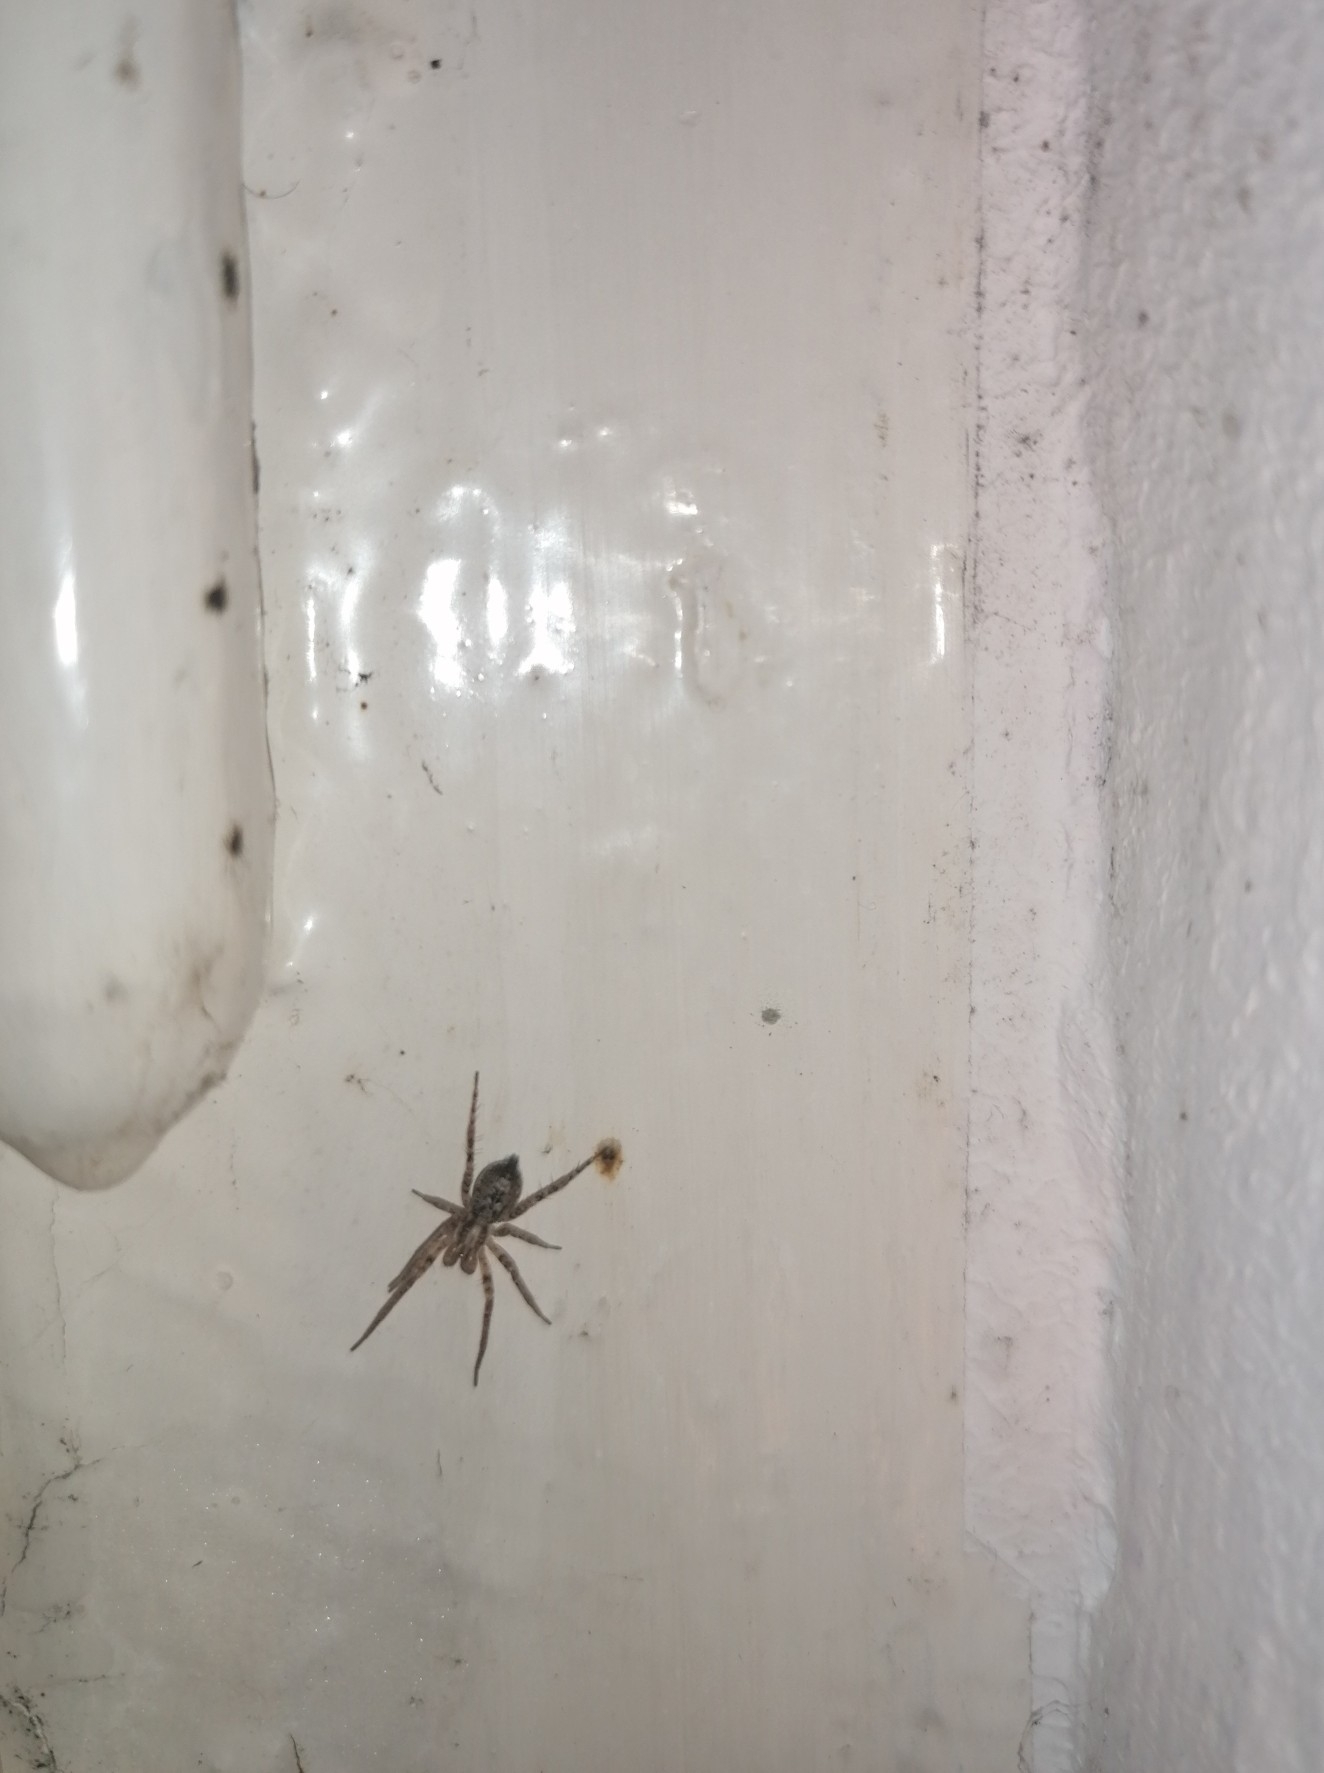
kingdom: Animalia
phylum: Arthropoda
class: Arachnida
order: Araneae
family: Anyphaenidae
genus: Anyphaena
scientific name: Anyphaena accentuata
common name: Buzzing spider
